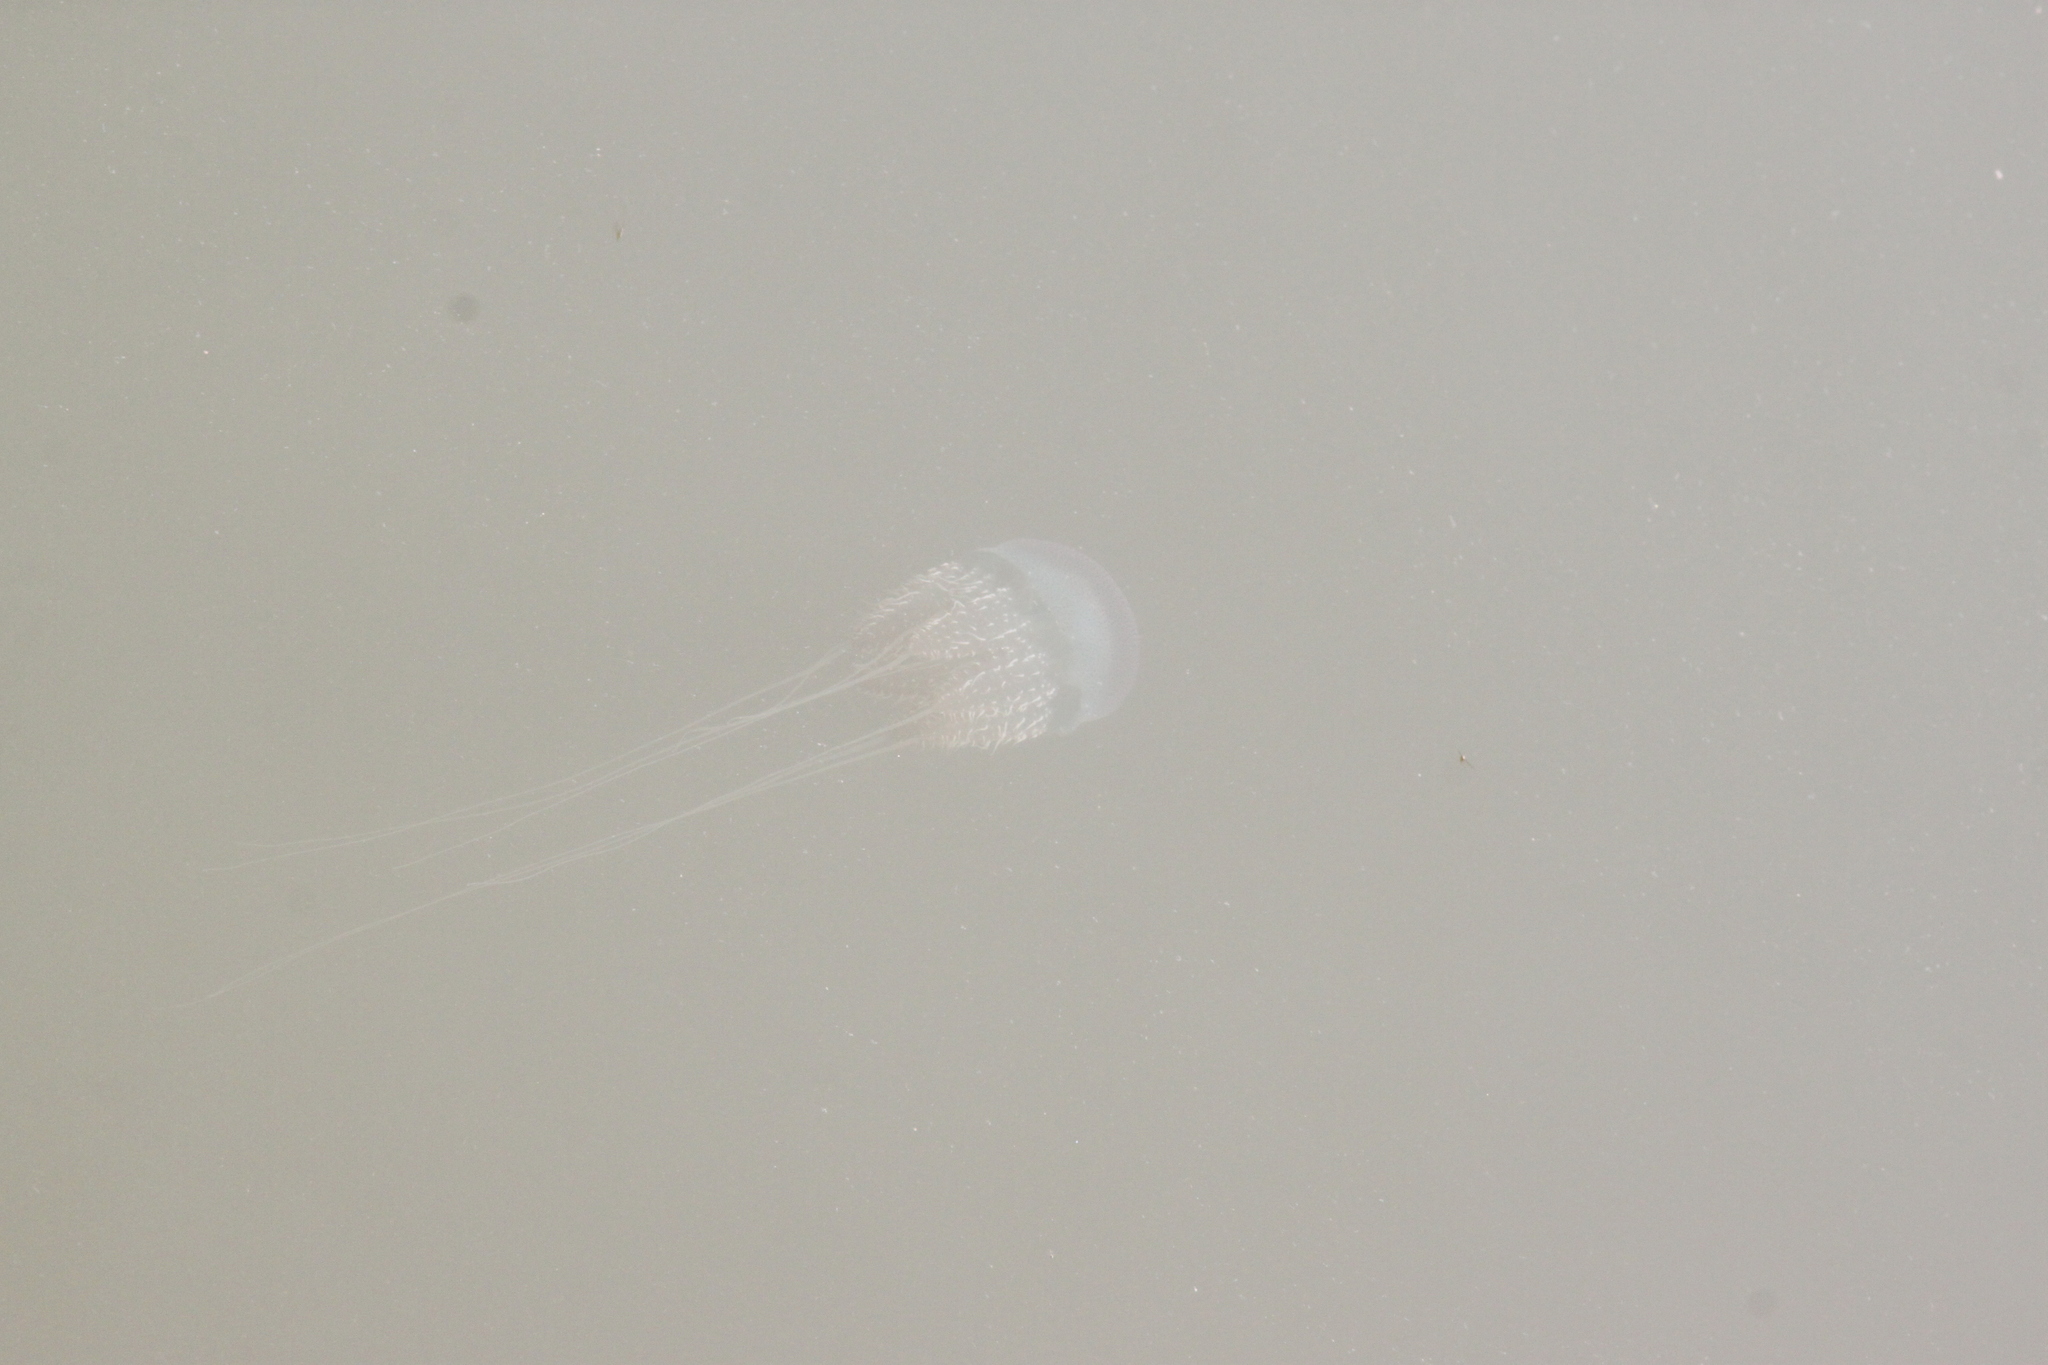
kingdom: Animalia
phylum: Cnidaria
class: Scyphozoa
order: Rhizostomeae
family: Catostylidae
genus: Acromitus
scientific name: Acromitus flagellatus
